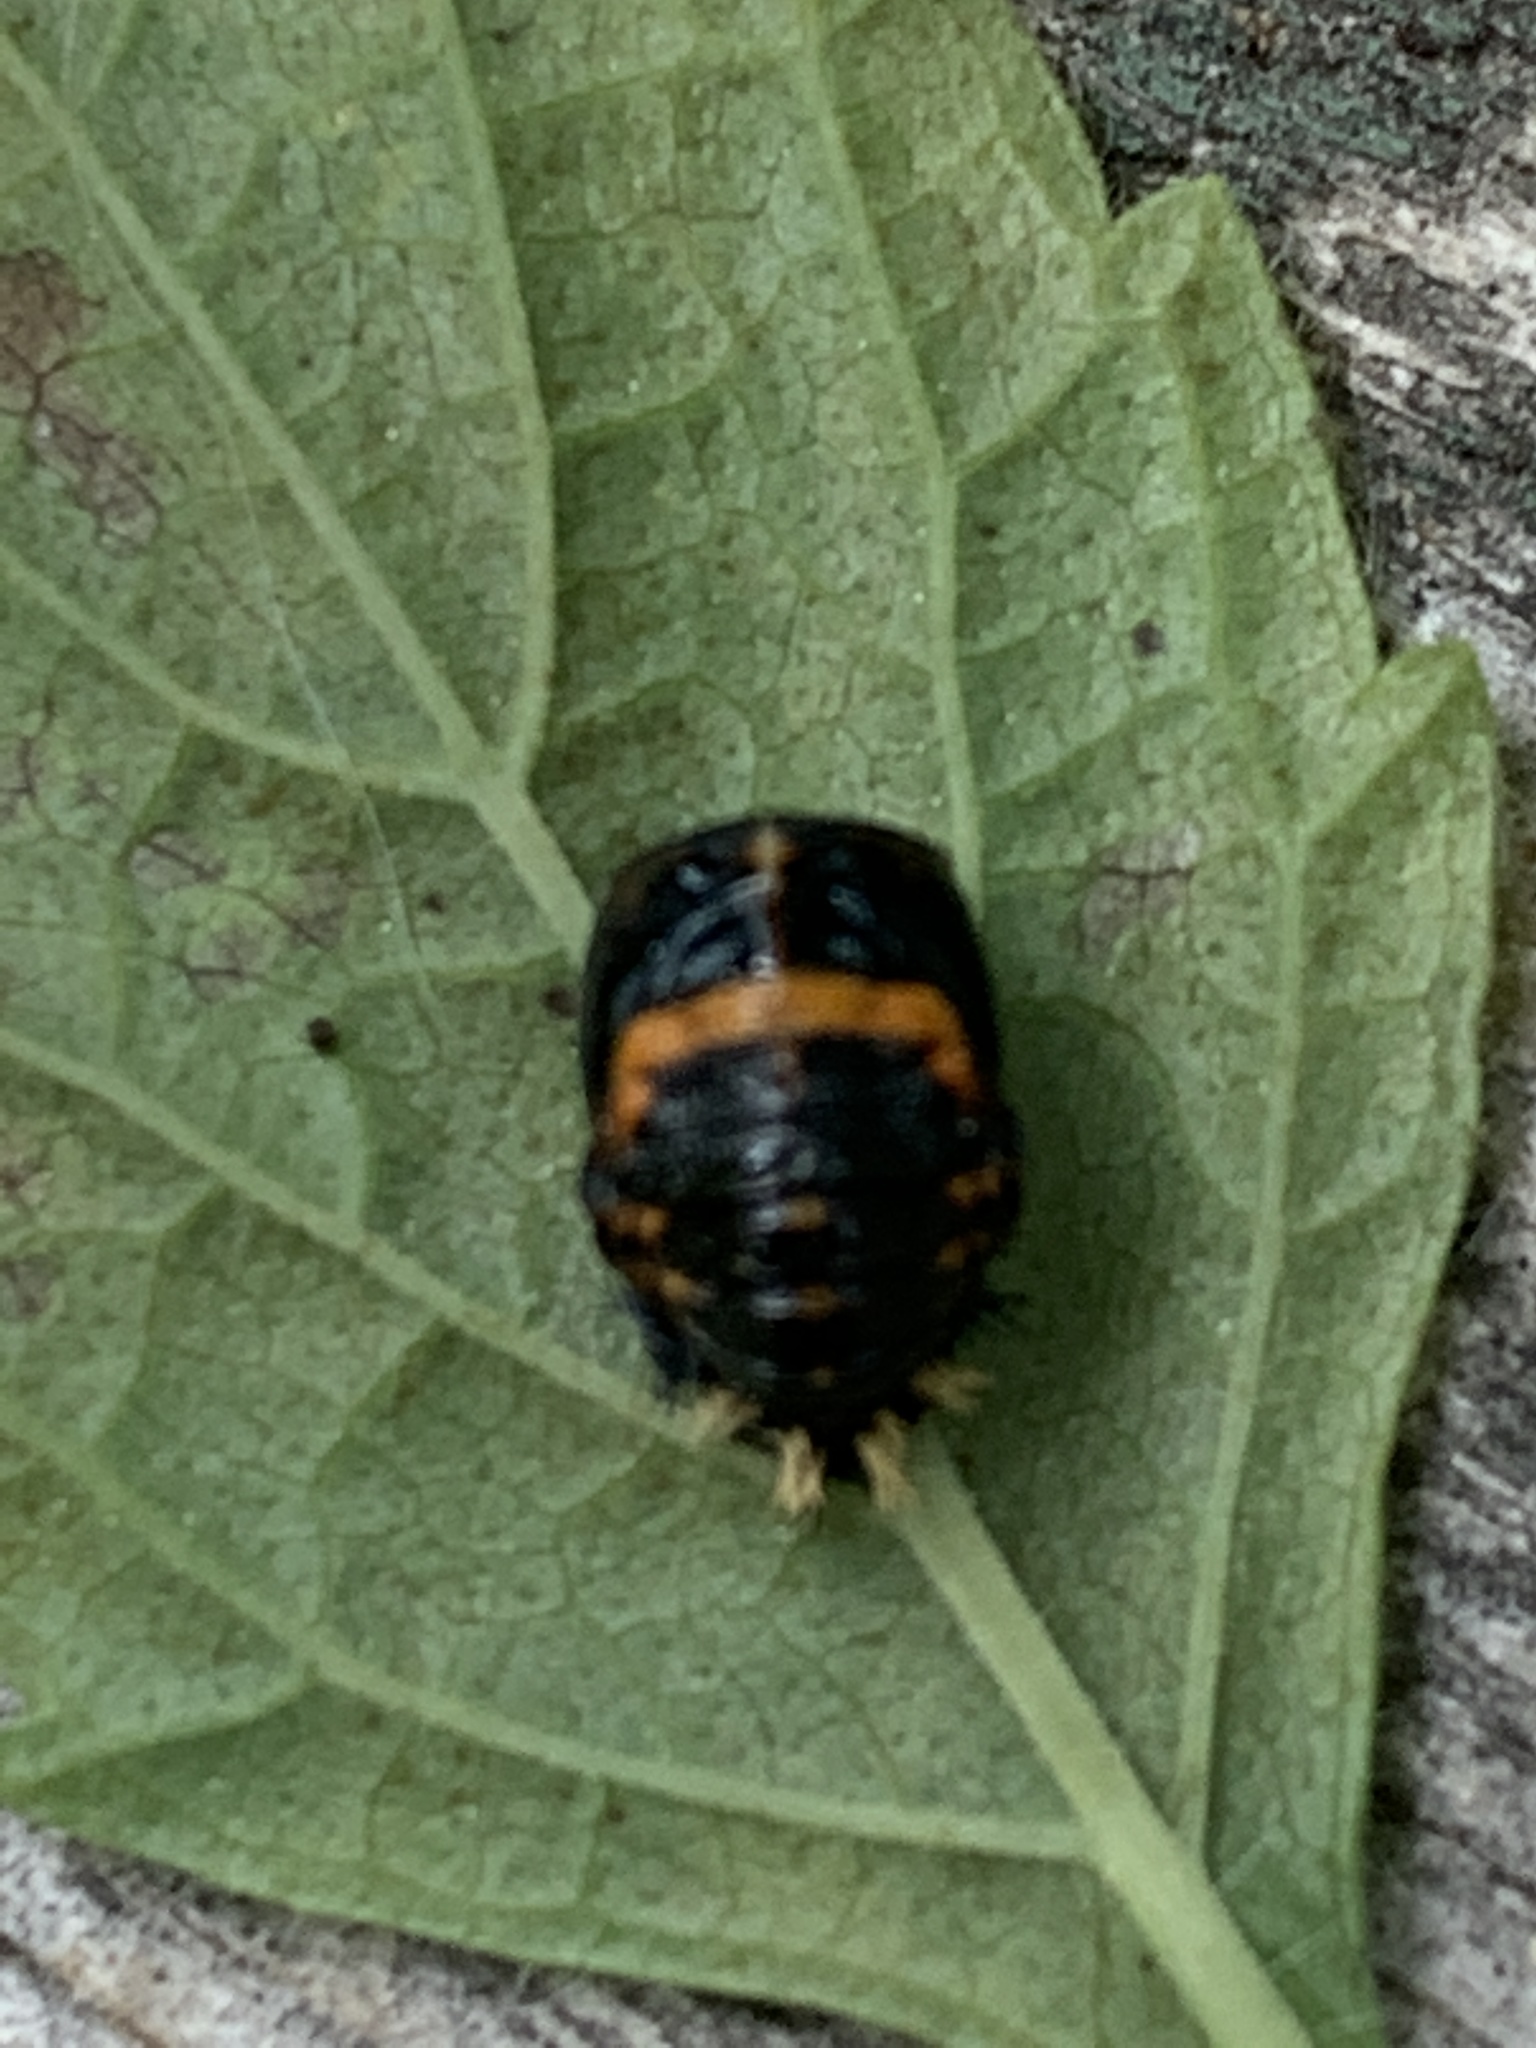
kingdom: Animalia
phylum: Arthropoda
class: Insecta
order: Coleoptera
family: Coccinellidae
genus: Harmonia
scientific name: Harmonia axyridis
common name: Harlequin ladybird
